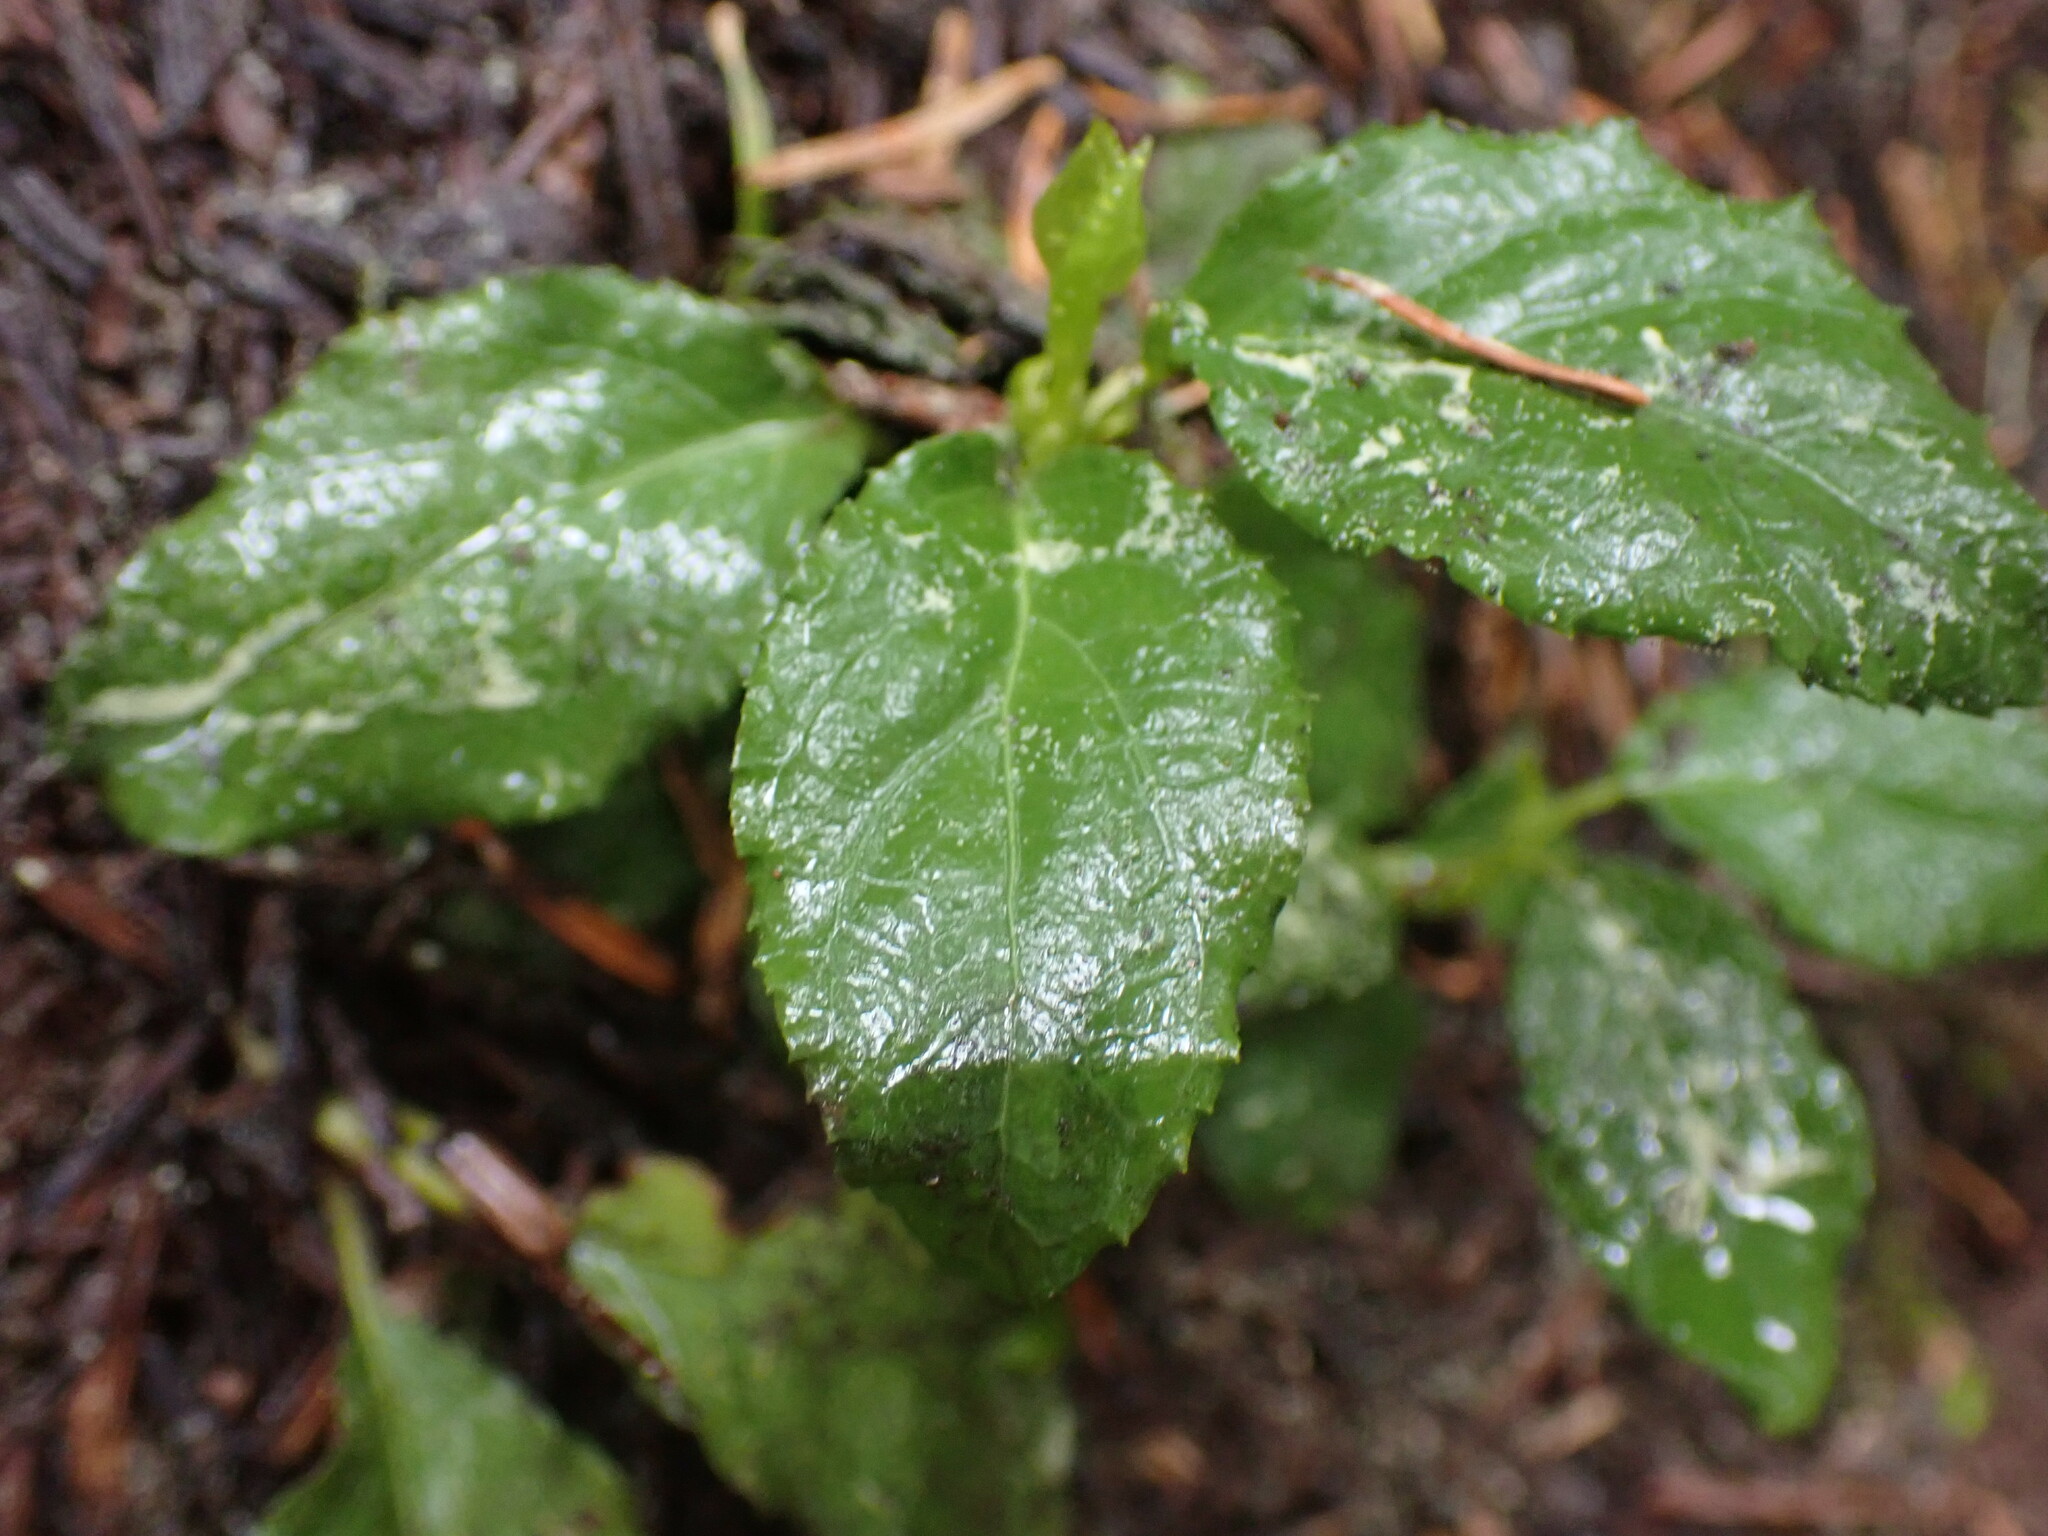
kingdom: Plantae
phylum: Tracheophyta
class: Magnoliopsida
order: Ericales
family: Ericaceae
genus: Orthilia
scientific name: Orthilia secunda
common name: One-sided orthilia
